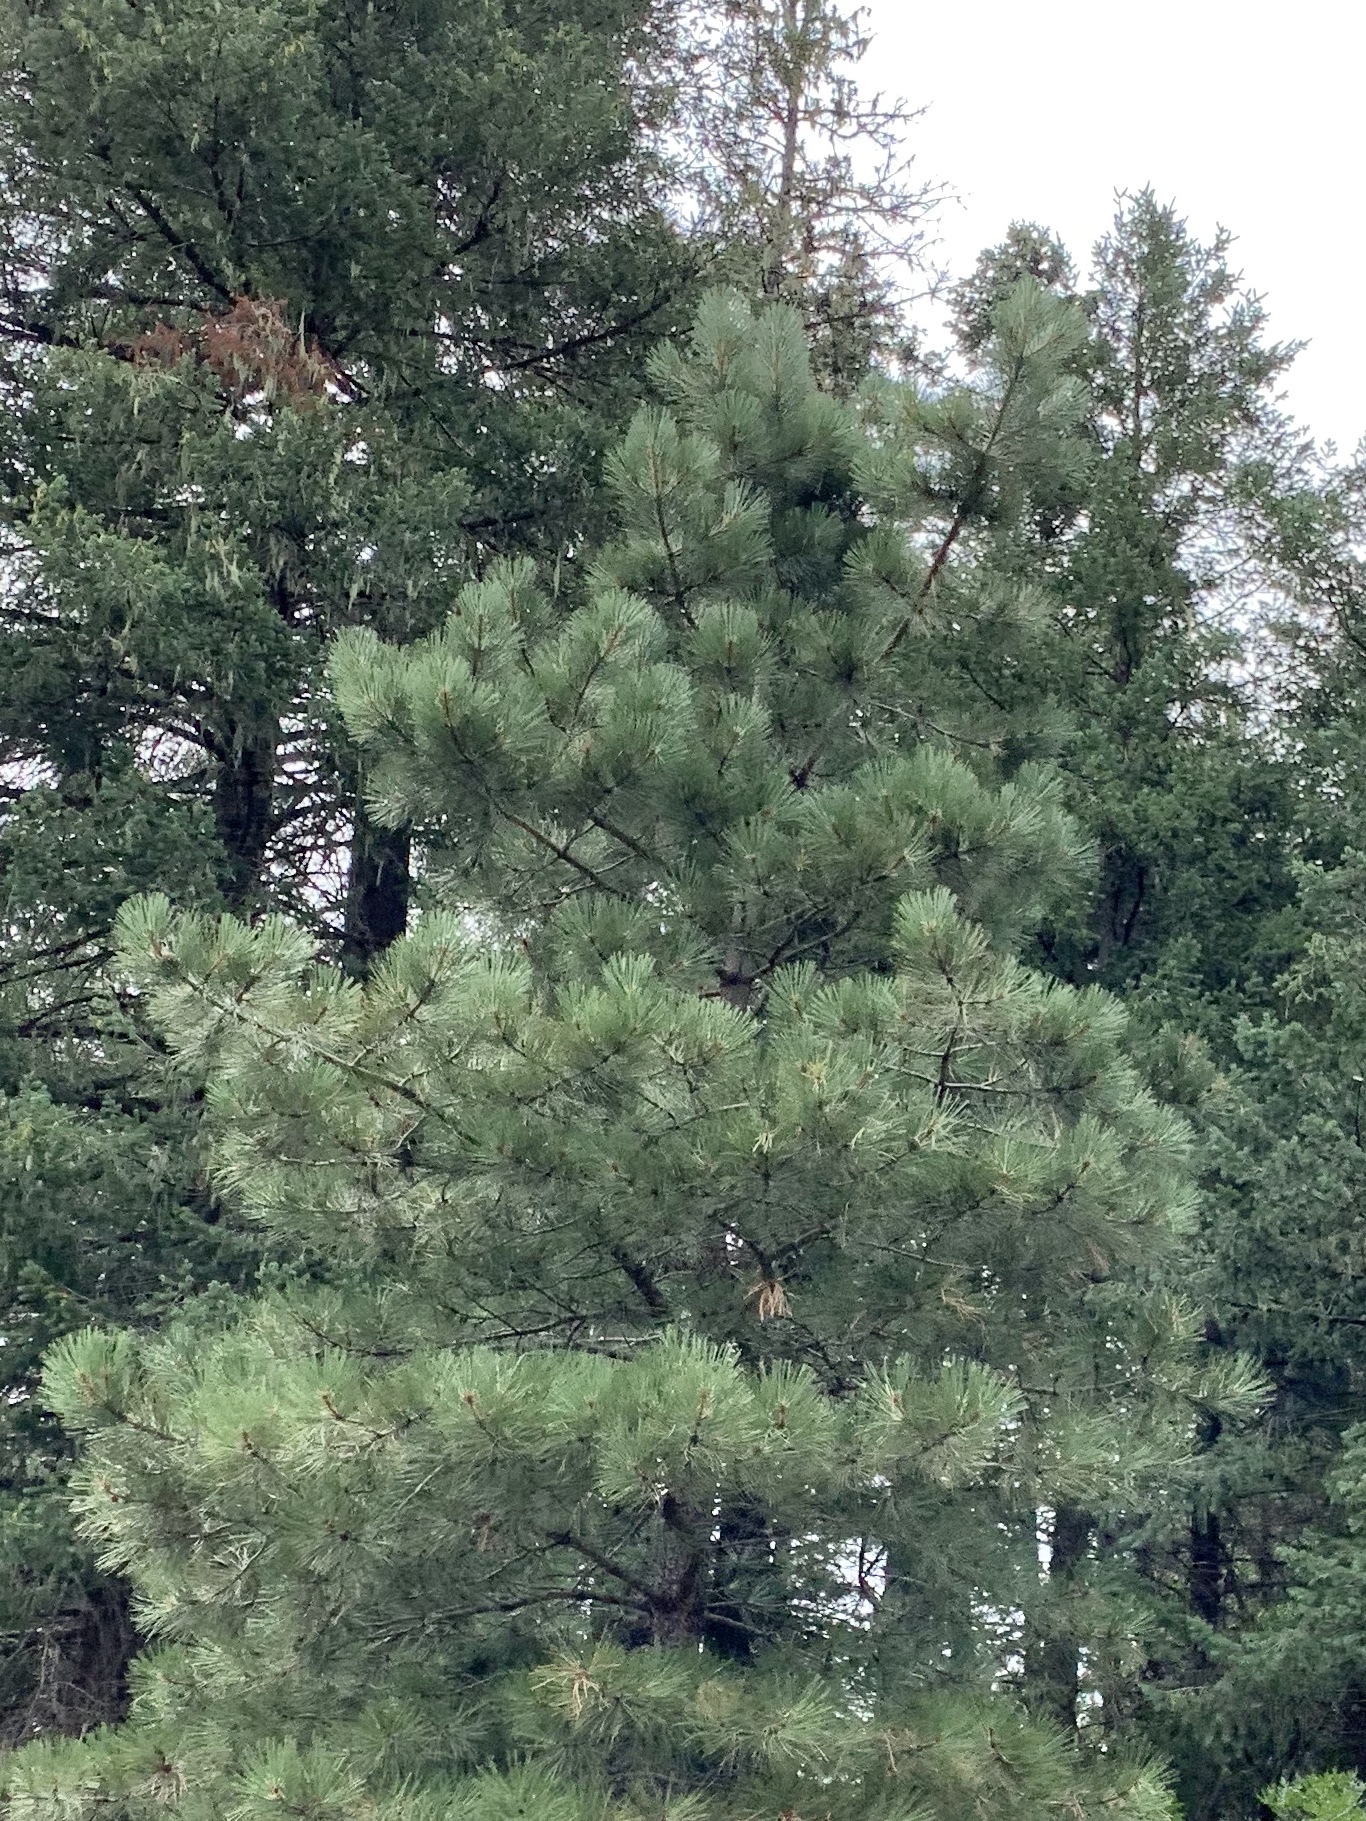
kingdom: Plantae
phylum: Tracheophyta
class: Pinopsida
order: Pinales
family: Pinaceae
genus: Pinus
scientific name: Pinus ponderosa
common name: Western yellow-pine
